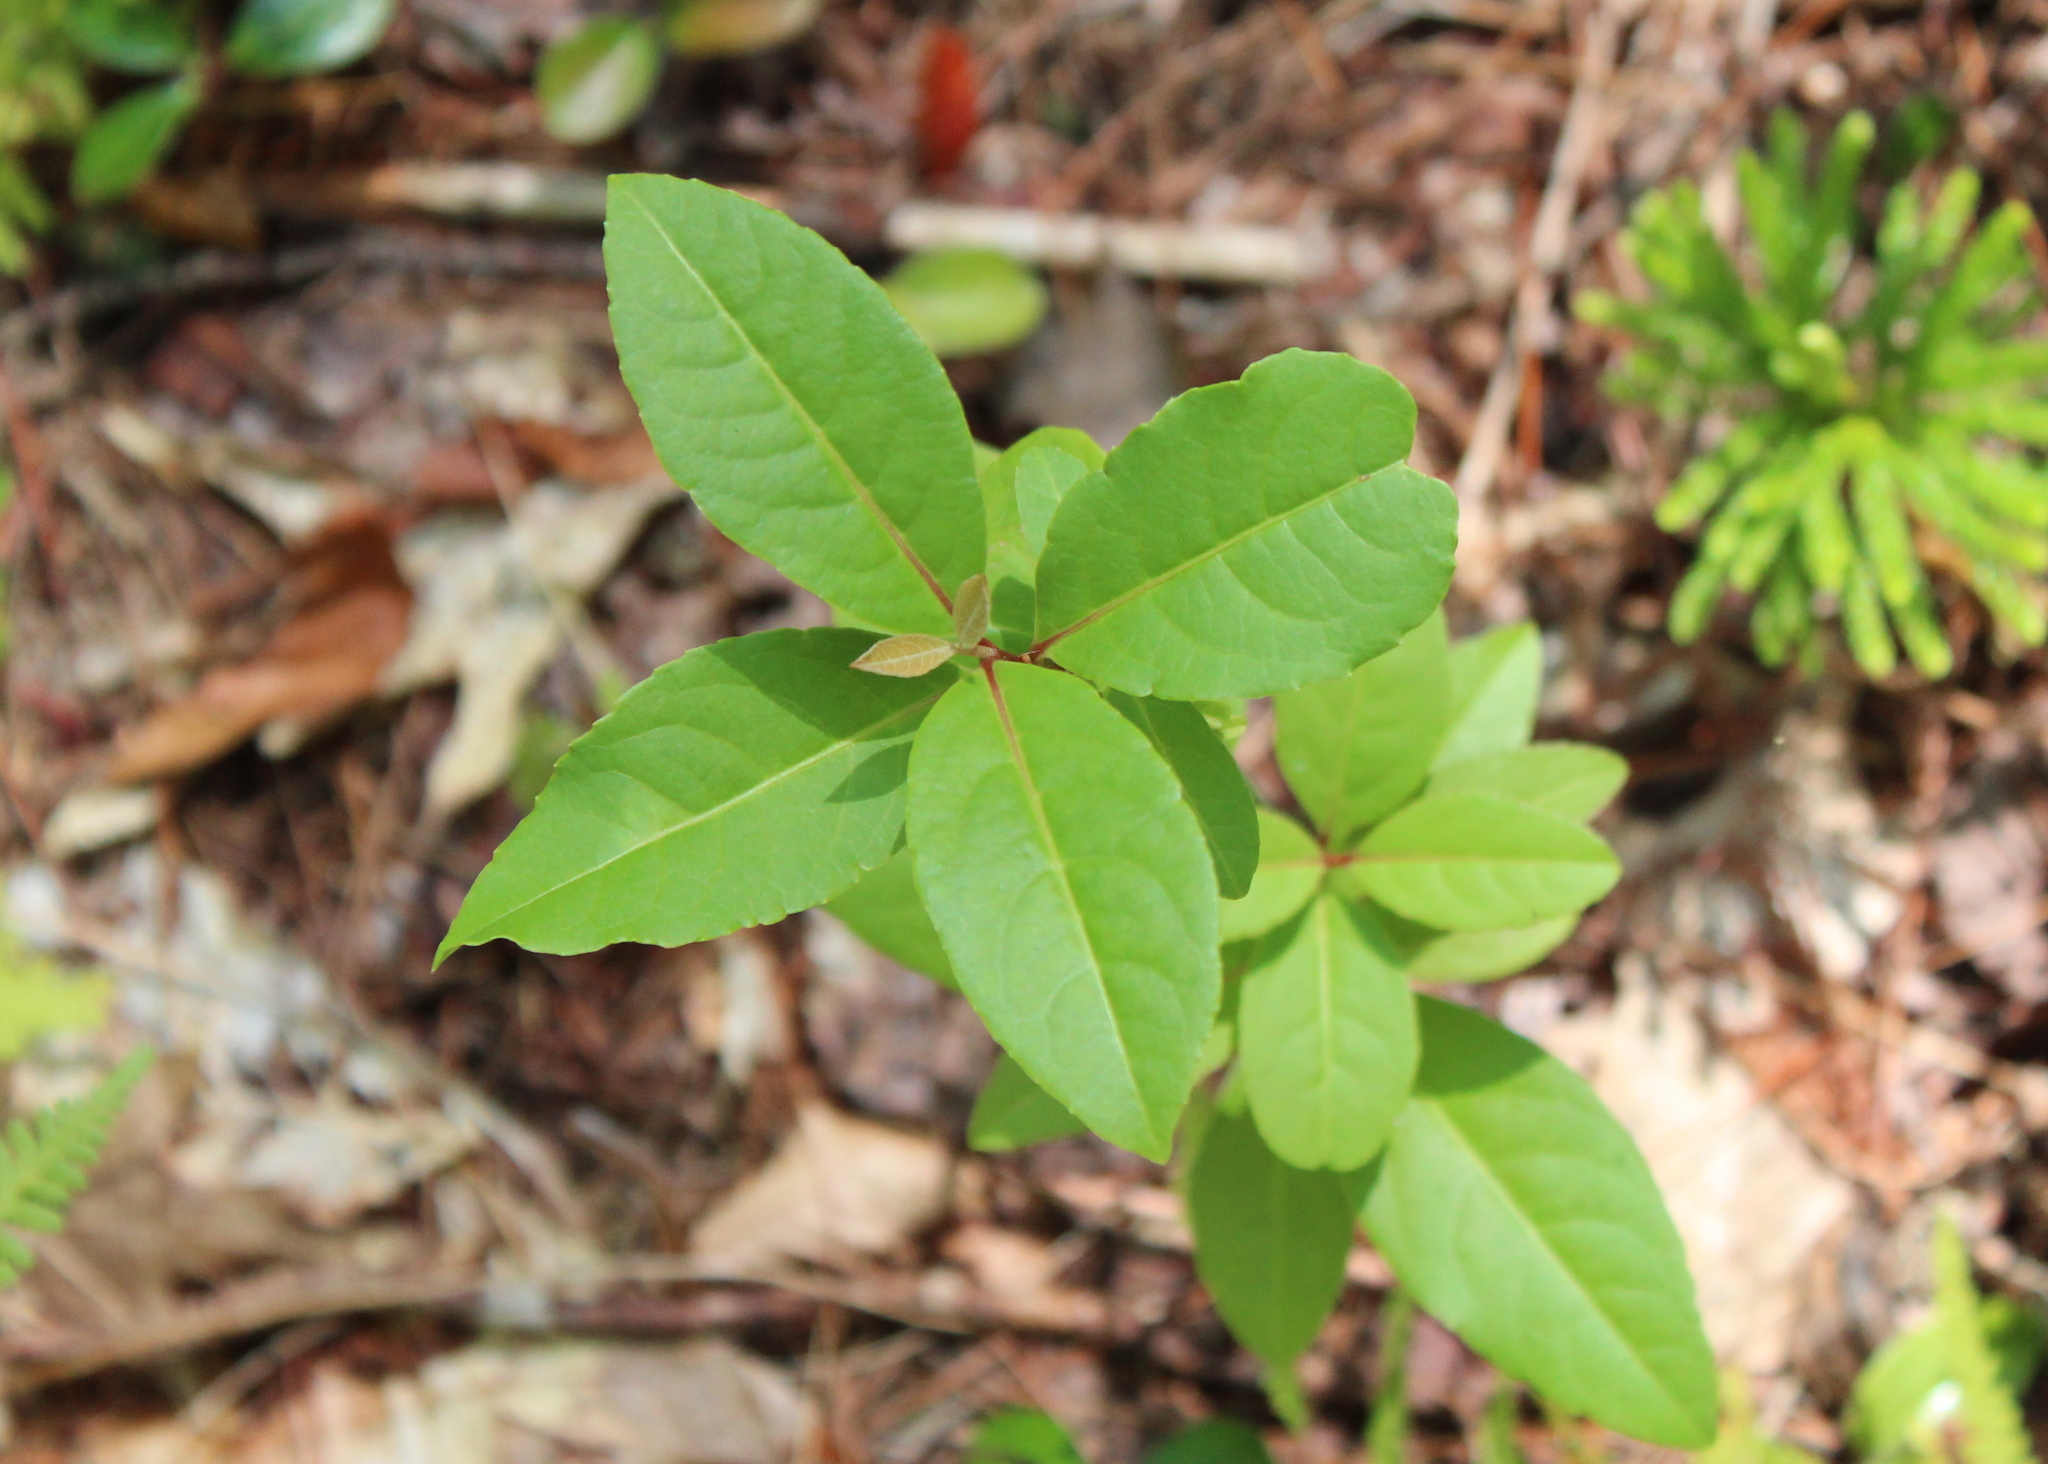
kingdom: Plantae
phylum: Tracheophyta
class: Magnoliopsida
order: Dipsacales
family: Viburnaceae
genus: Viburnum
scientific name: Viburnum cassinoides
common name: Swamp haw
